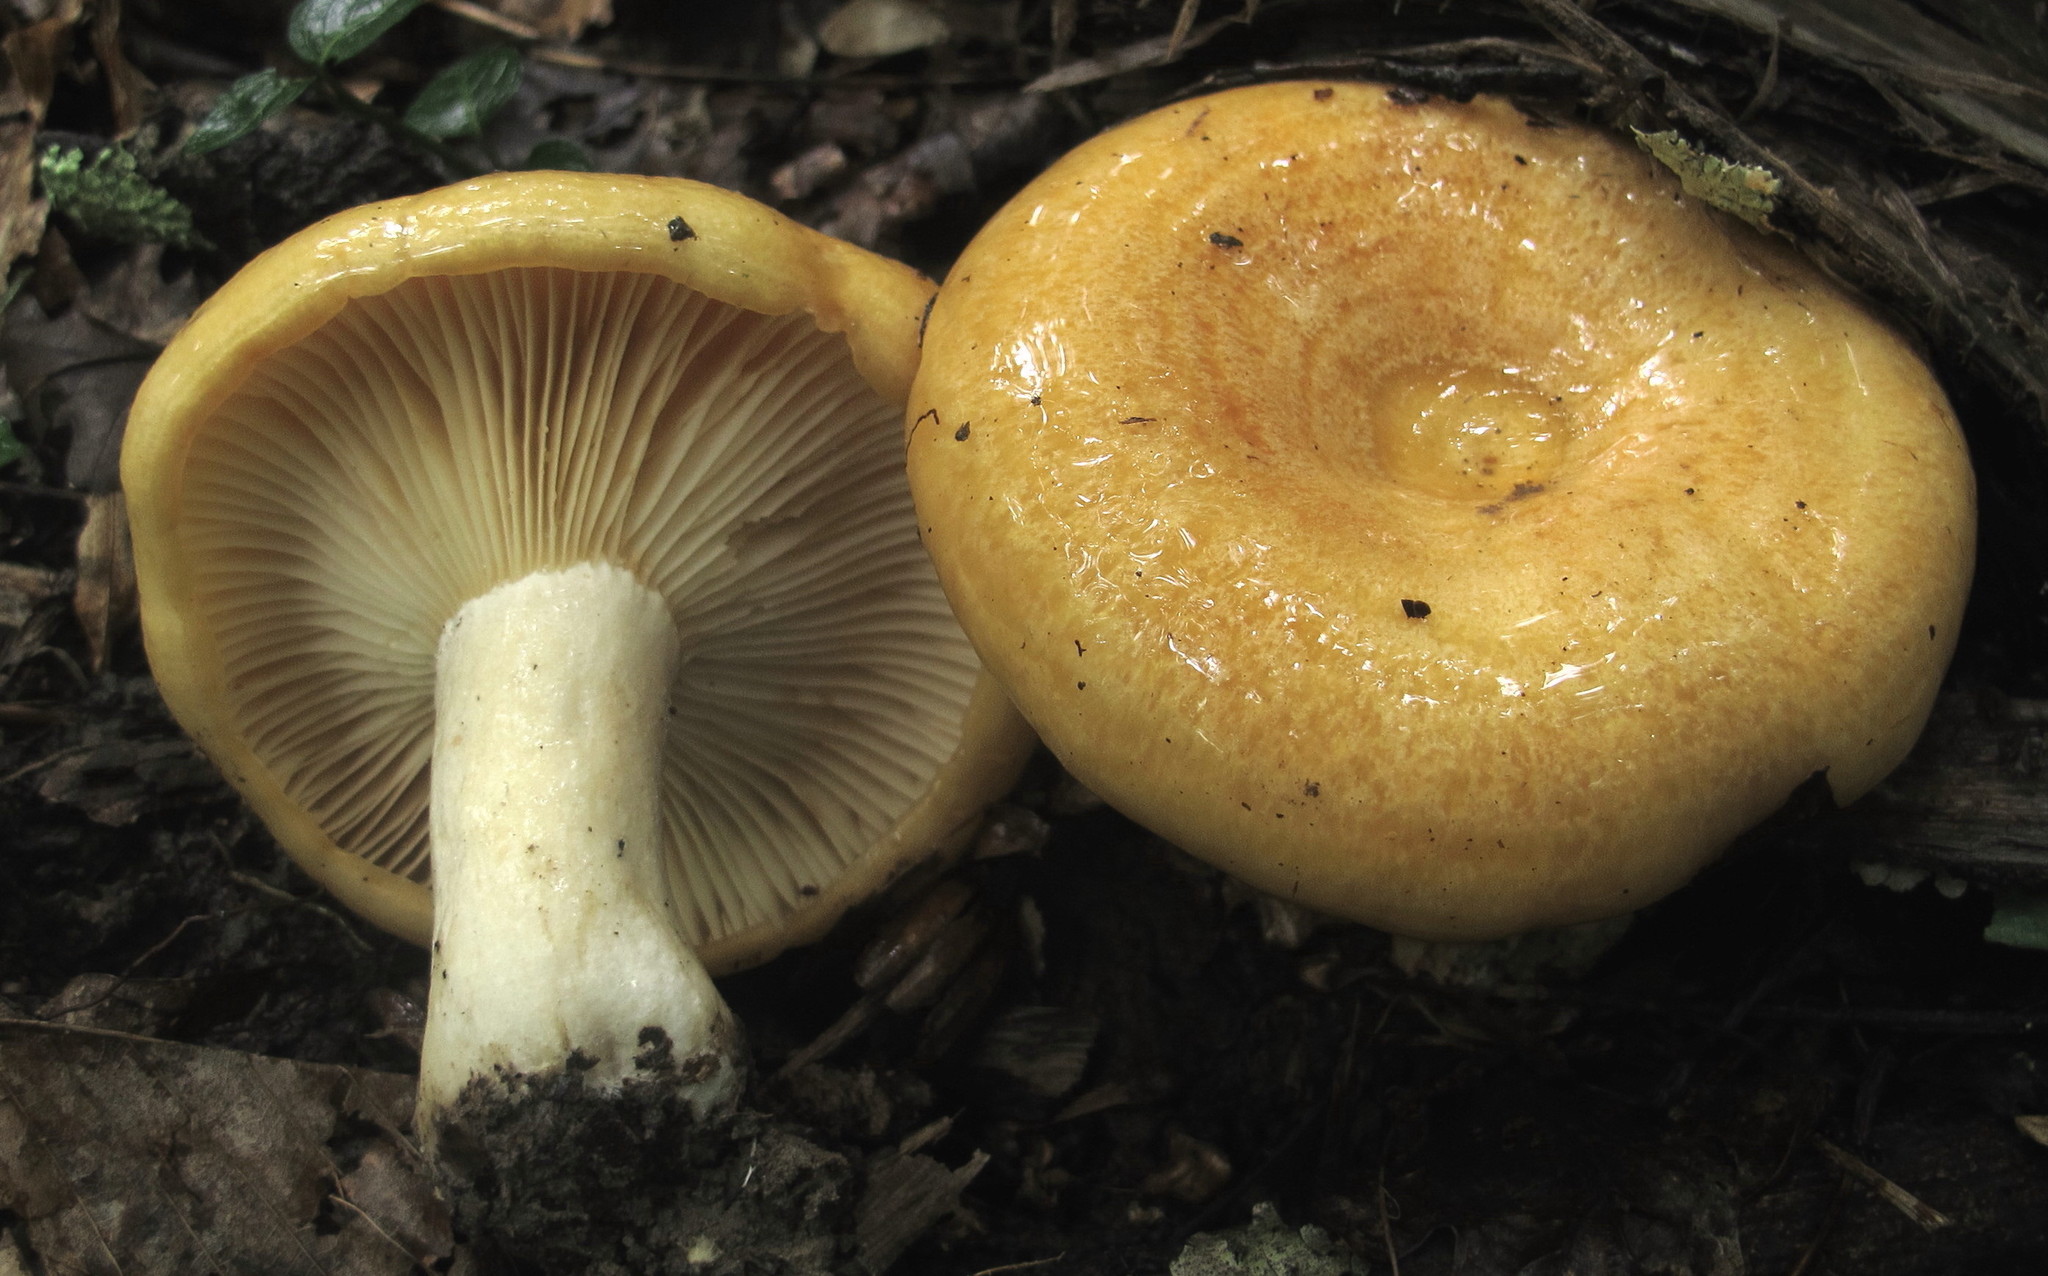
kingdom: Fungi
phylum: Basidiomycota
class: Agaricomycetes
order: Russulales
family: Russulaceae
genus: Lactarius
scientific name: Lactarius croceus
